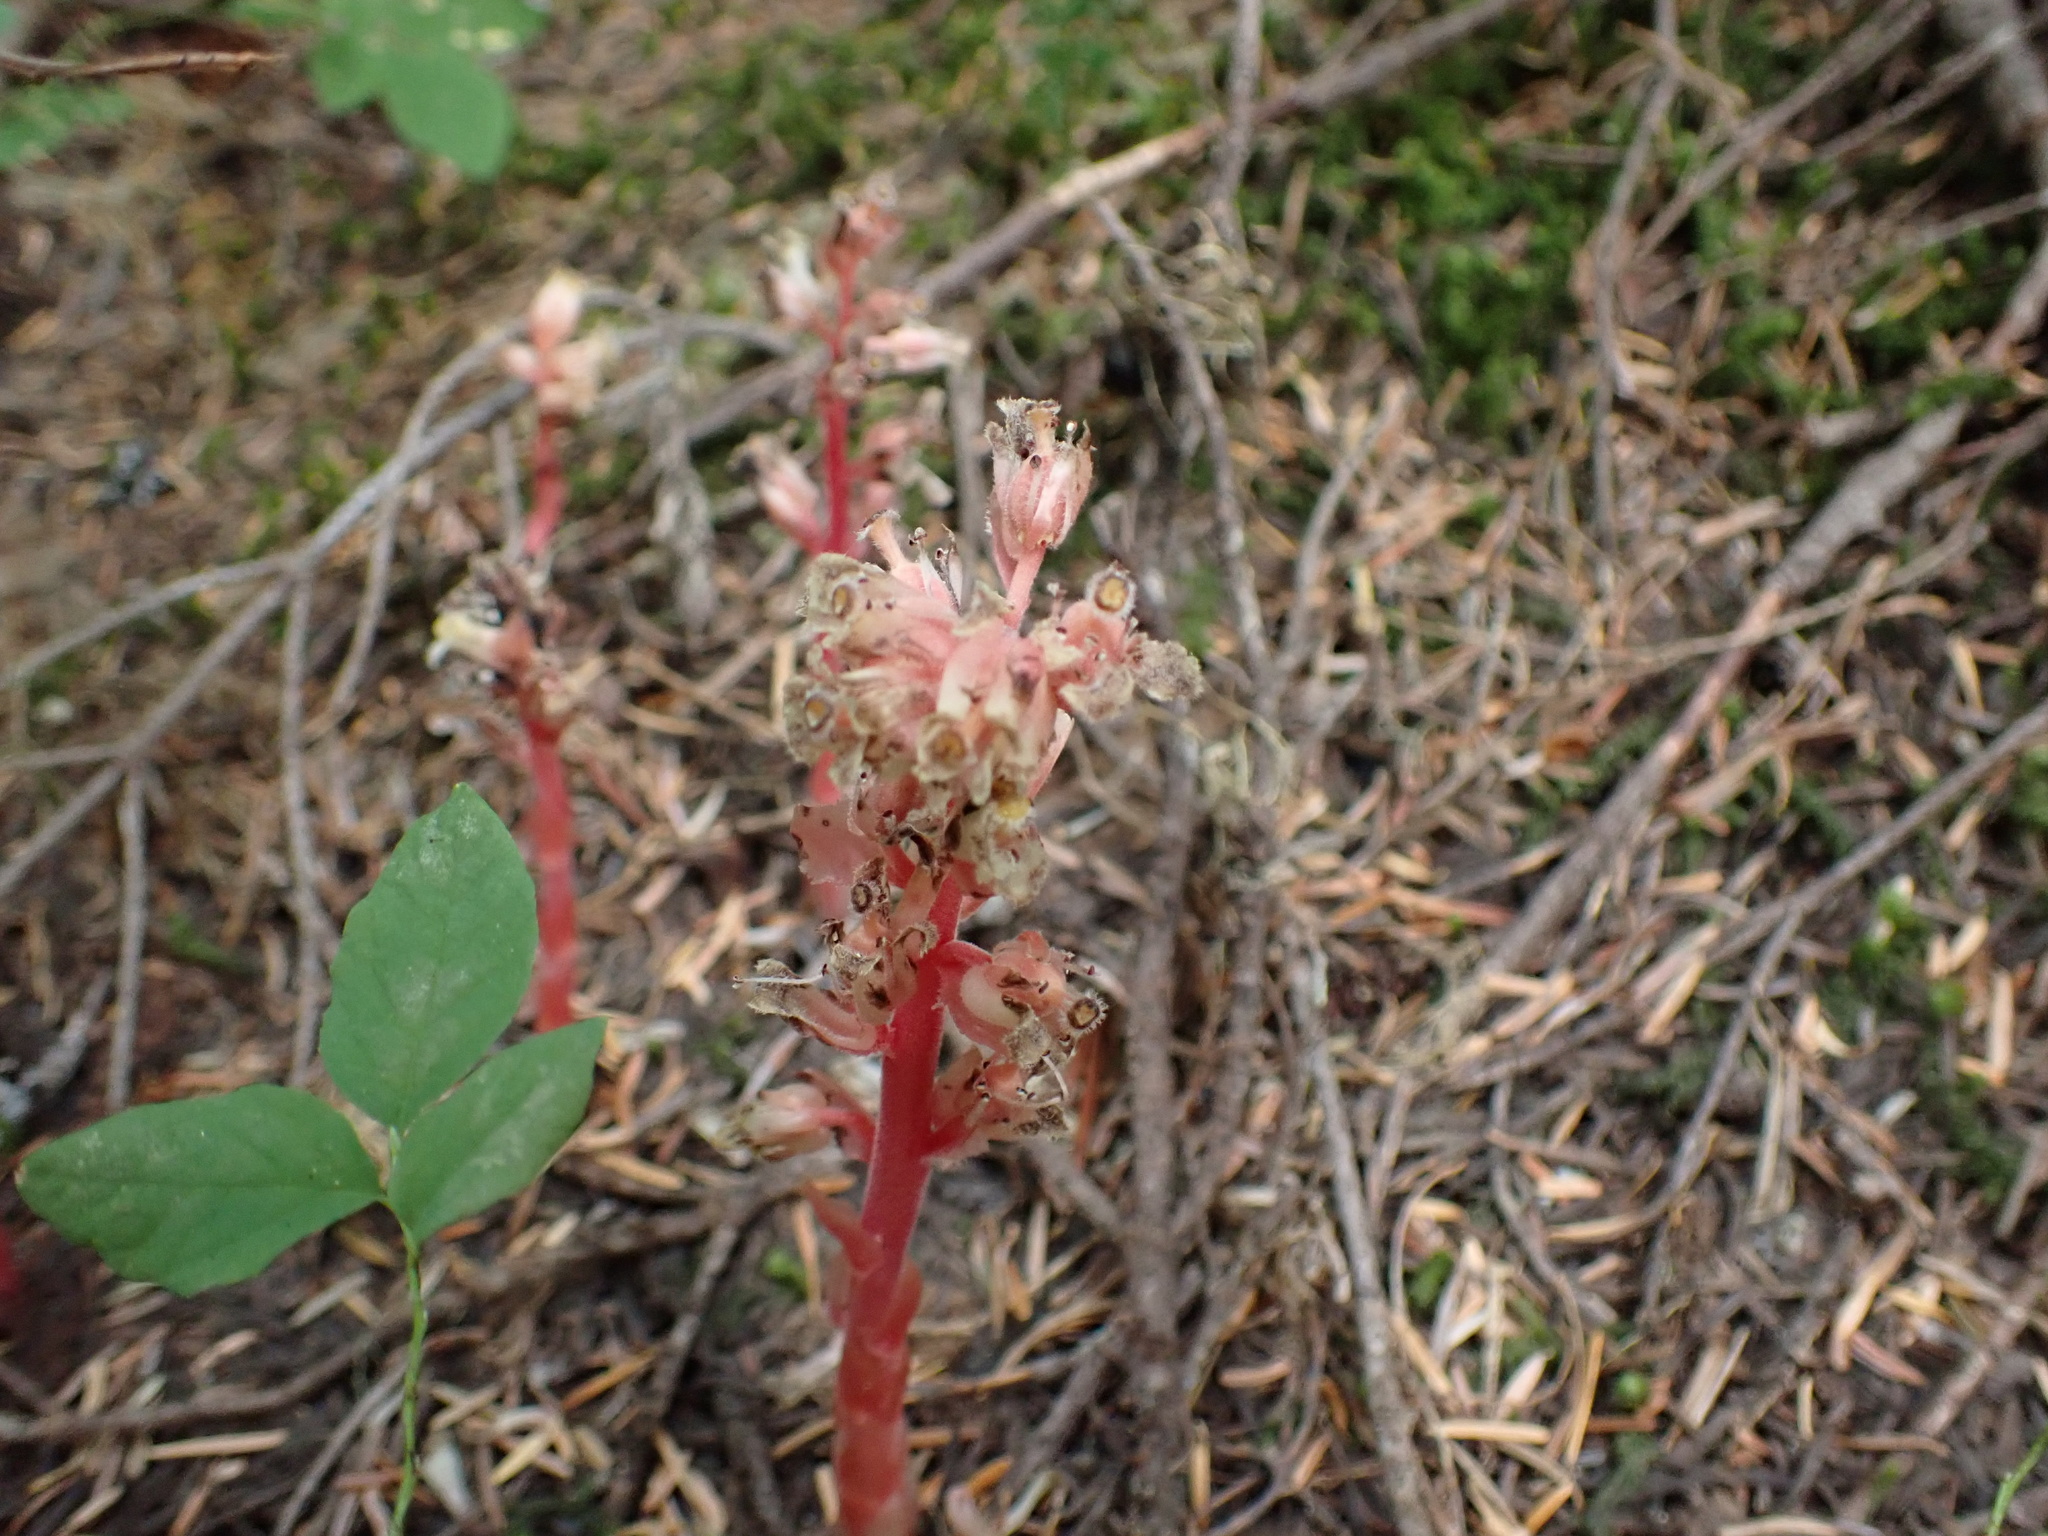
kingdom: Plantae
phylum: Tracheophyta
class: Magnoliopsida
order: Ericales
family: Ericaceae
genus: Hypopitys
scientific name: Hypopitys monotropa
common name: Yellow bird's-nest
